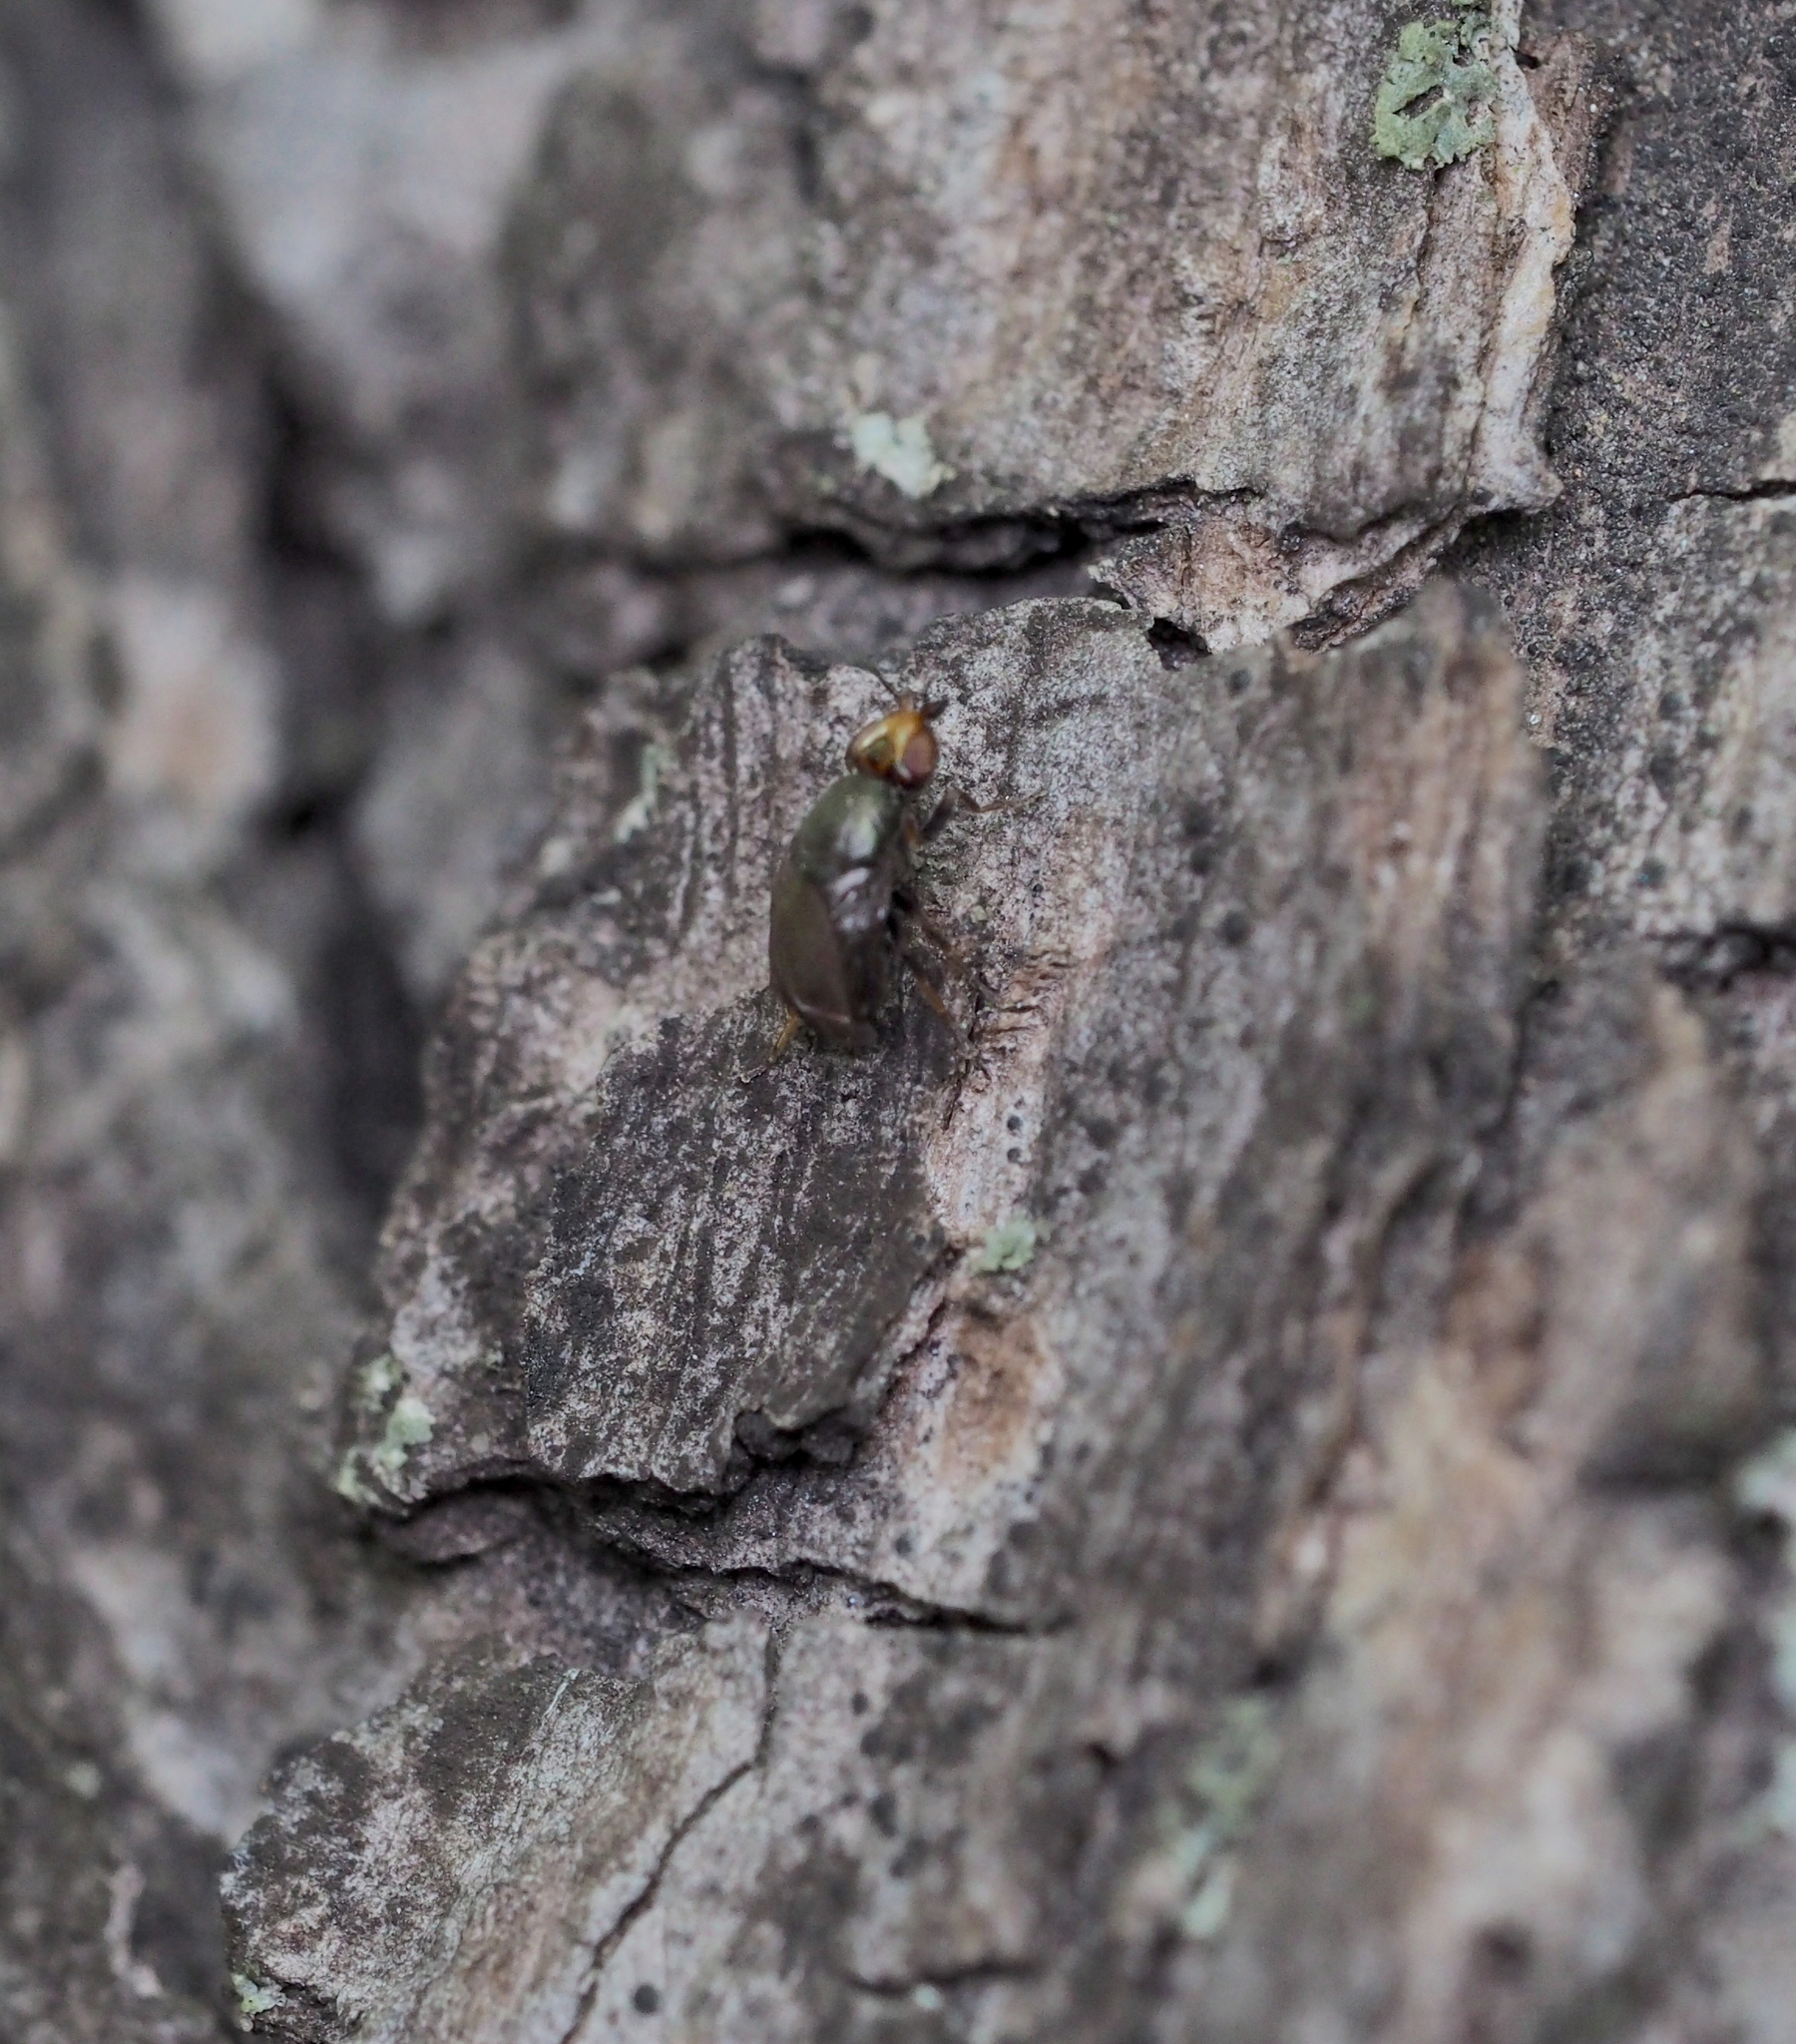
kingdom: Animalia
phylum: Arthropoda
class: Insecta
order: Diptera
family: Chloropidae
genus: Camarota
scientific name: Camarota curvipennis
